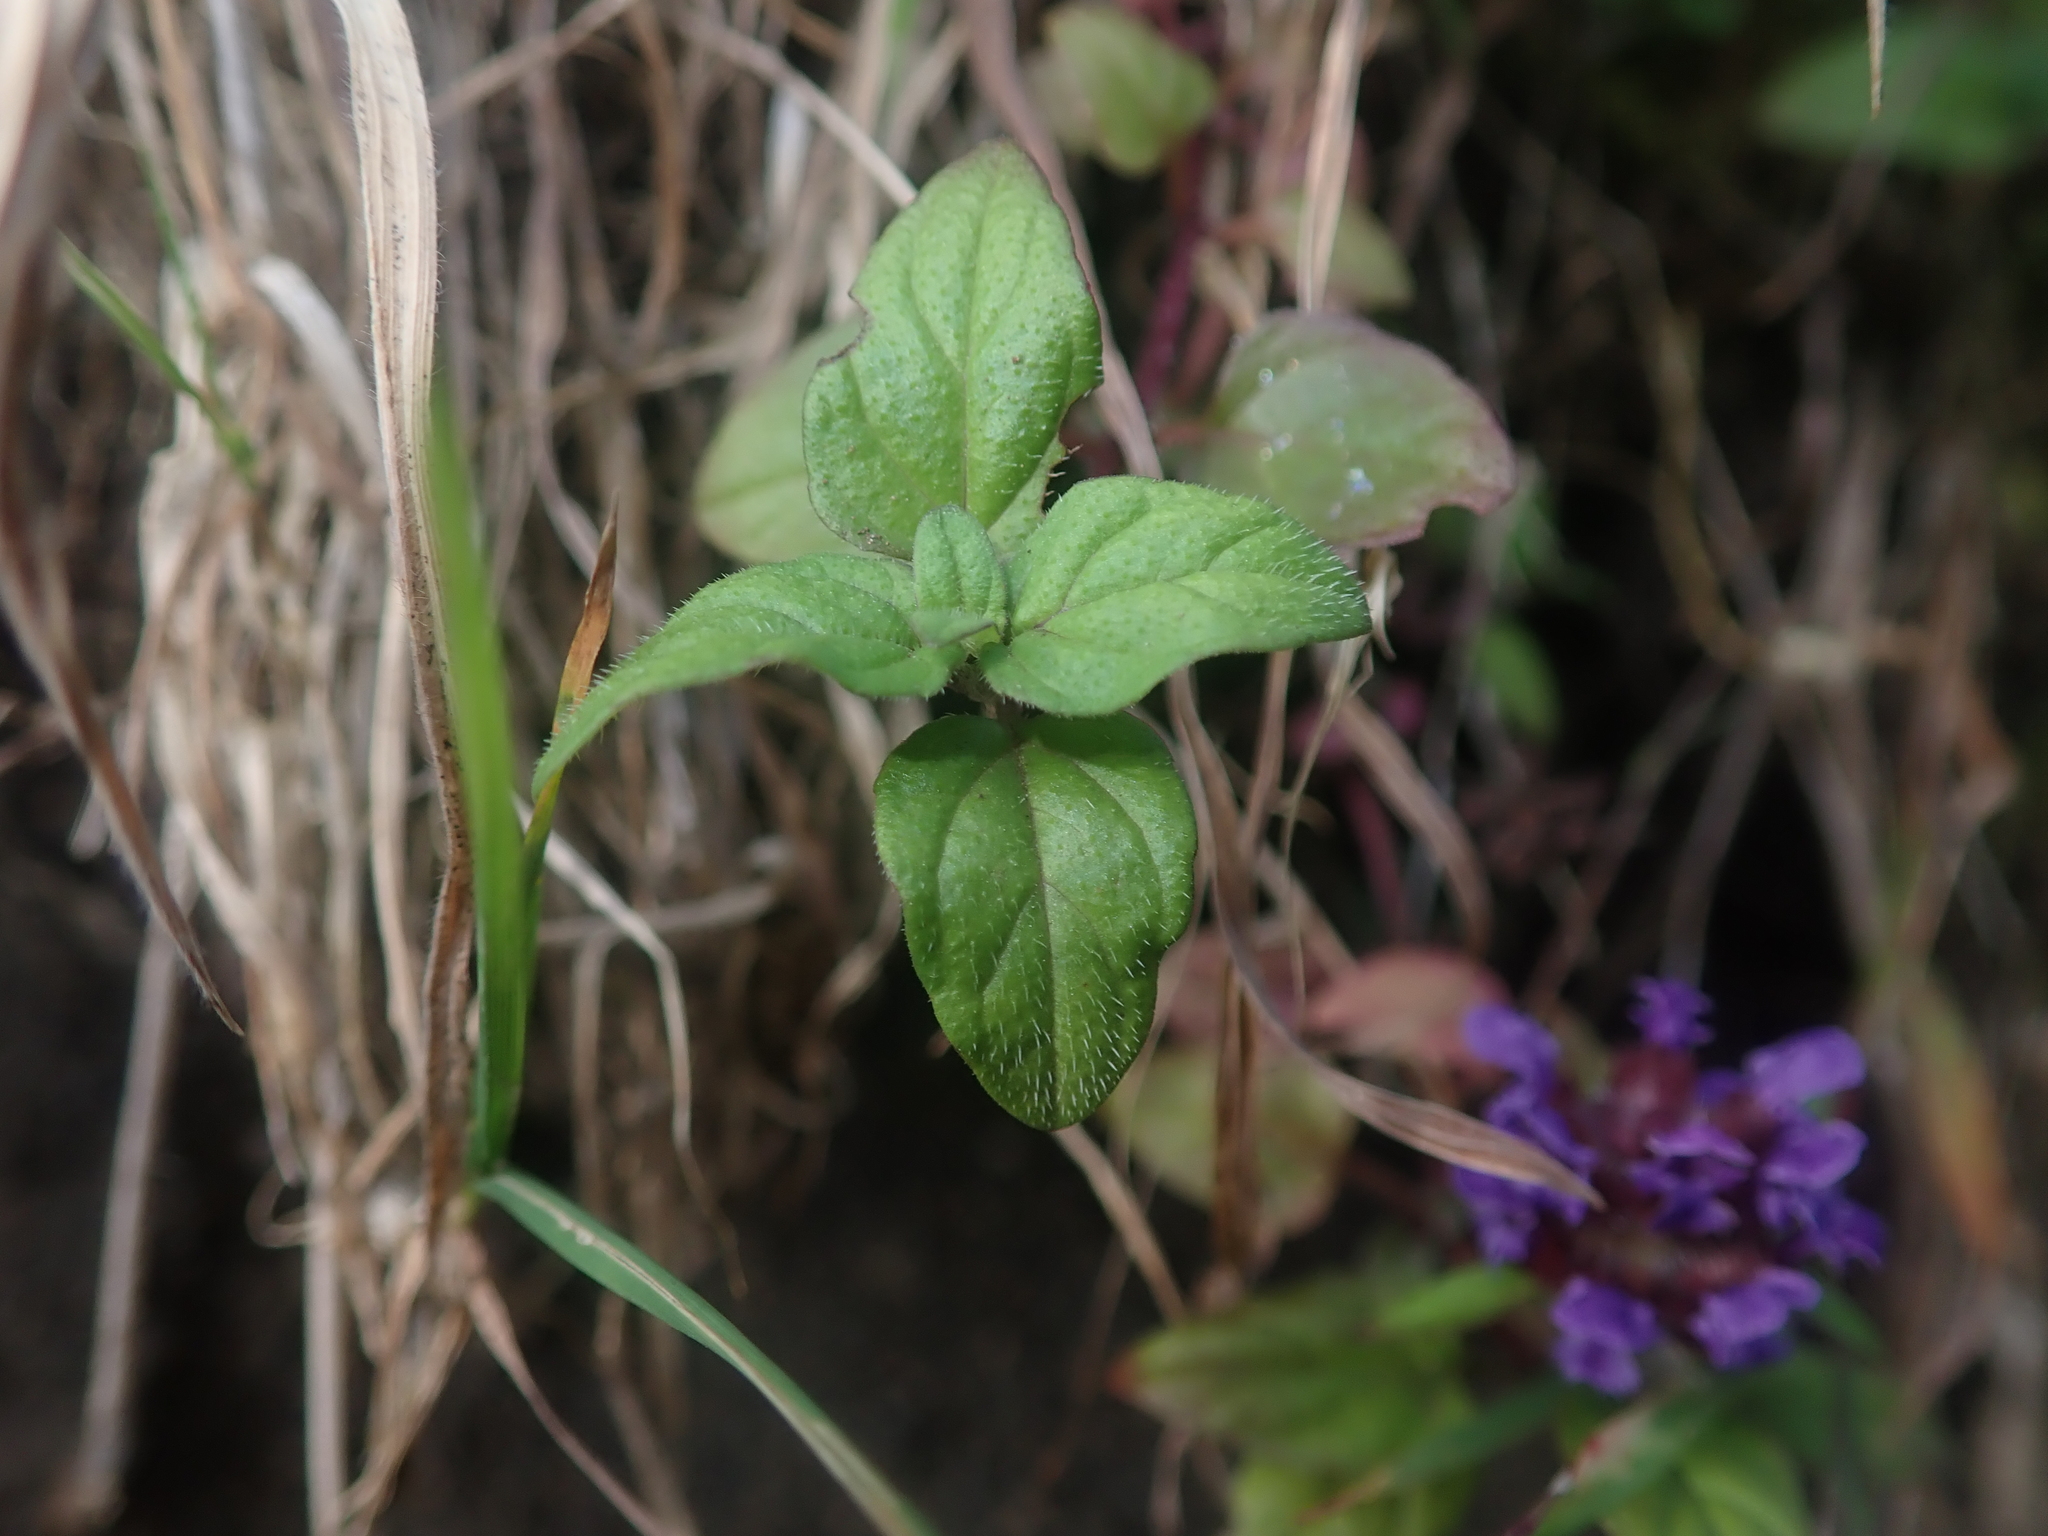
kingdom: Plantae
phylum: Tracheophyta
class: Magnoliopsida
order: Lamiales
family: Lamiaceae
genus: Prunella
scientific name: Prunella vulgaris
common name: Heal-all
